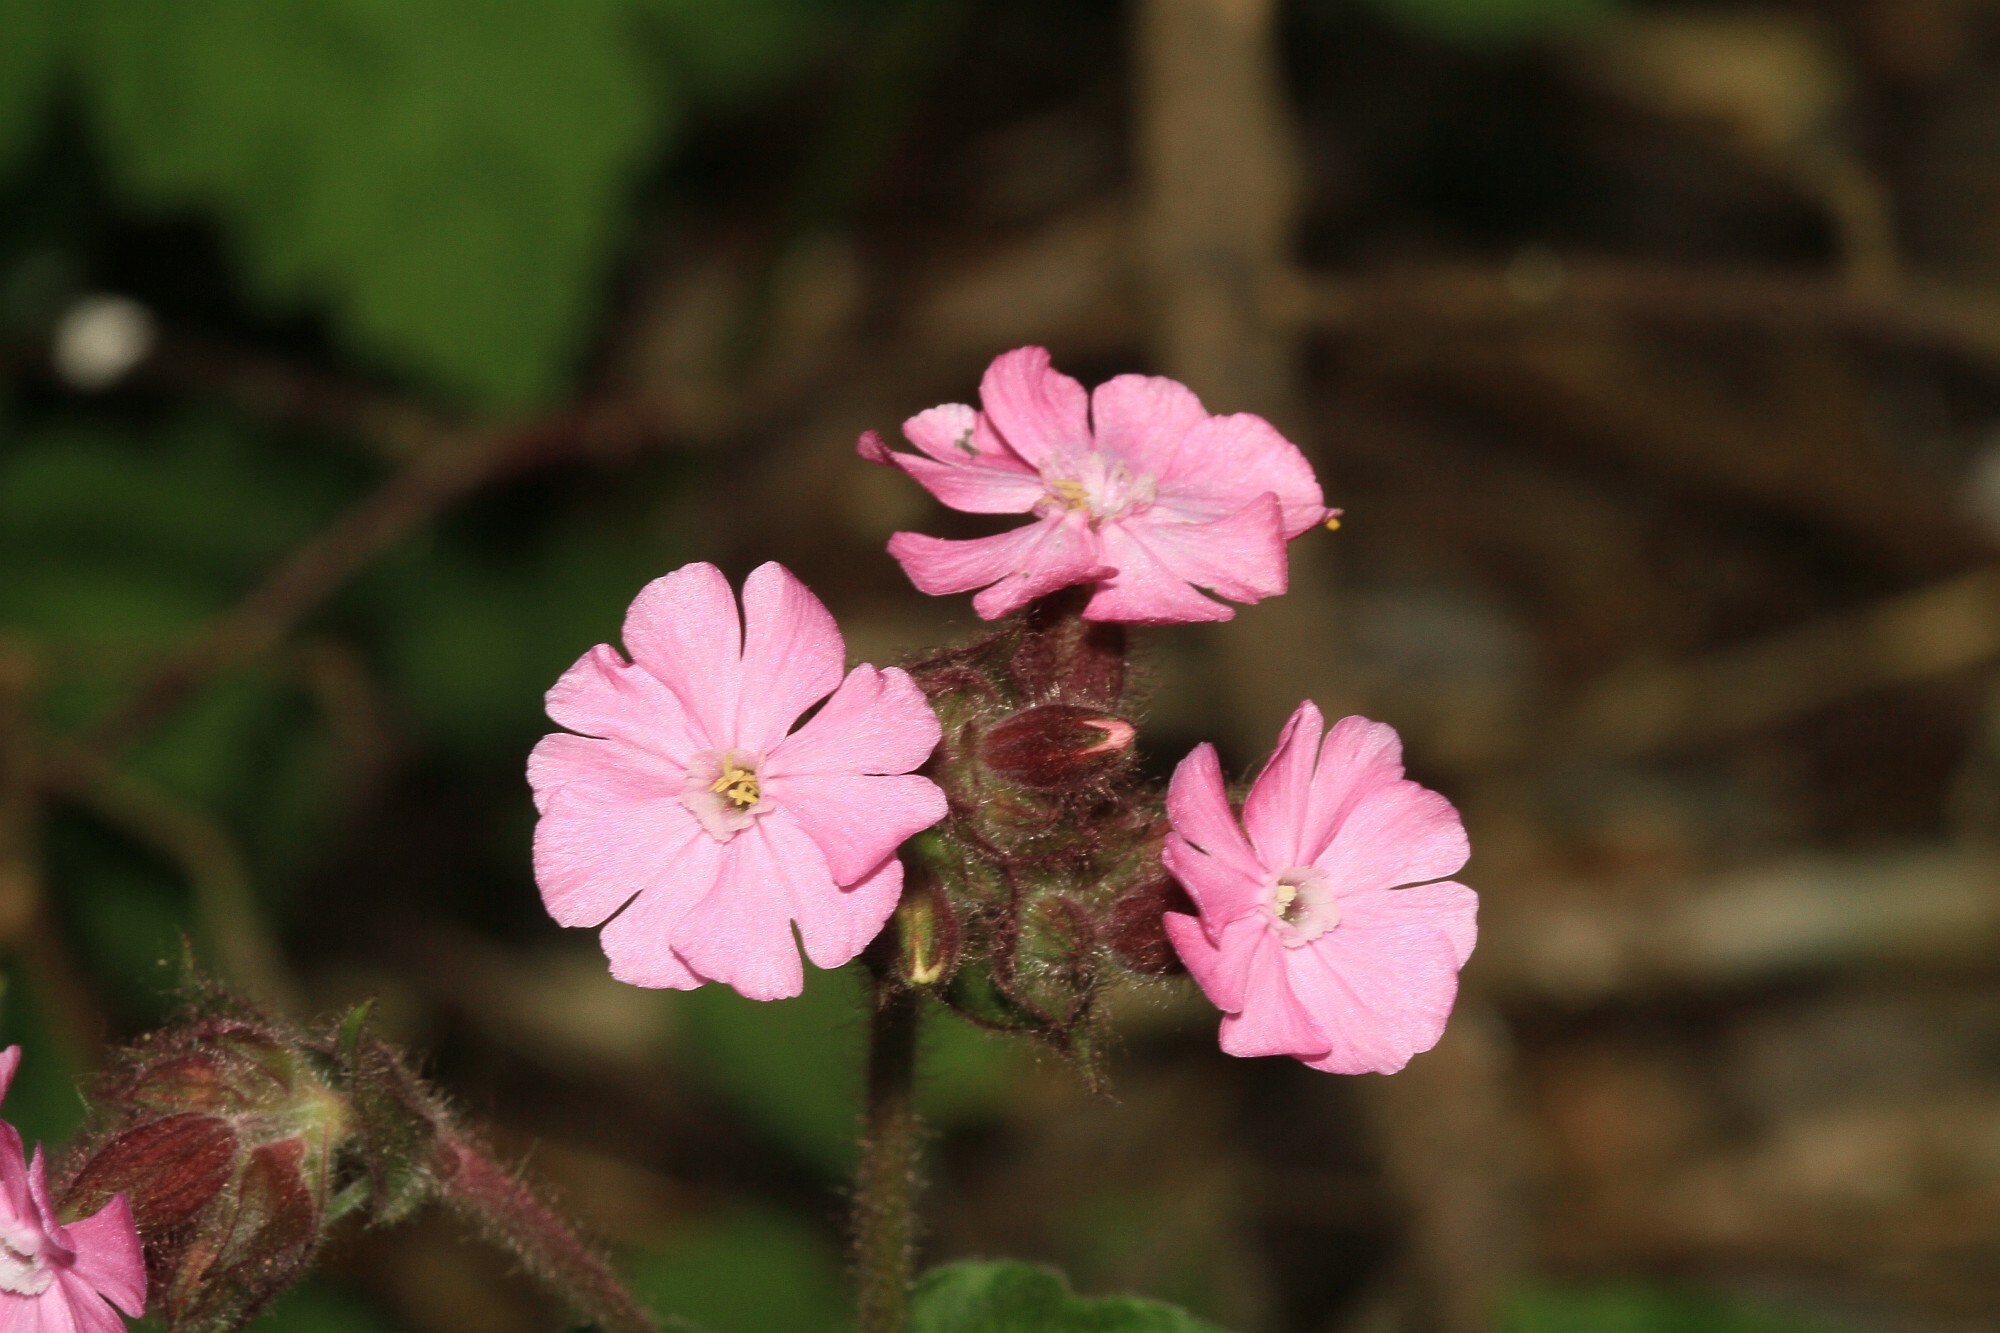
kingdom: Plantae
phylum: Tracheophyta
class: Magnoliopsida
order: Caryophyllales
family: Caryophyllaceae
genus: Silene
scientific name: Silene dioica
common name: Red campion
